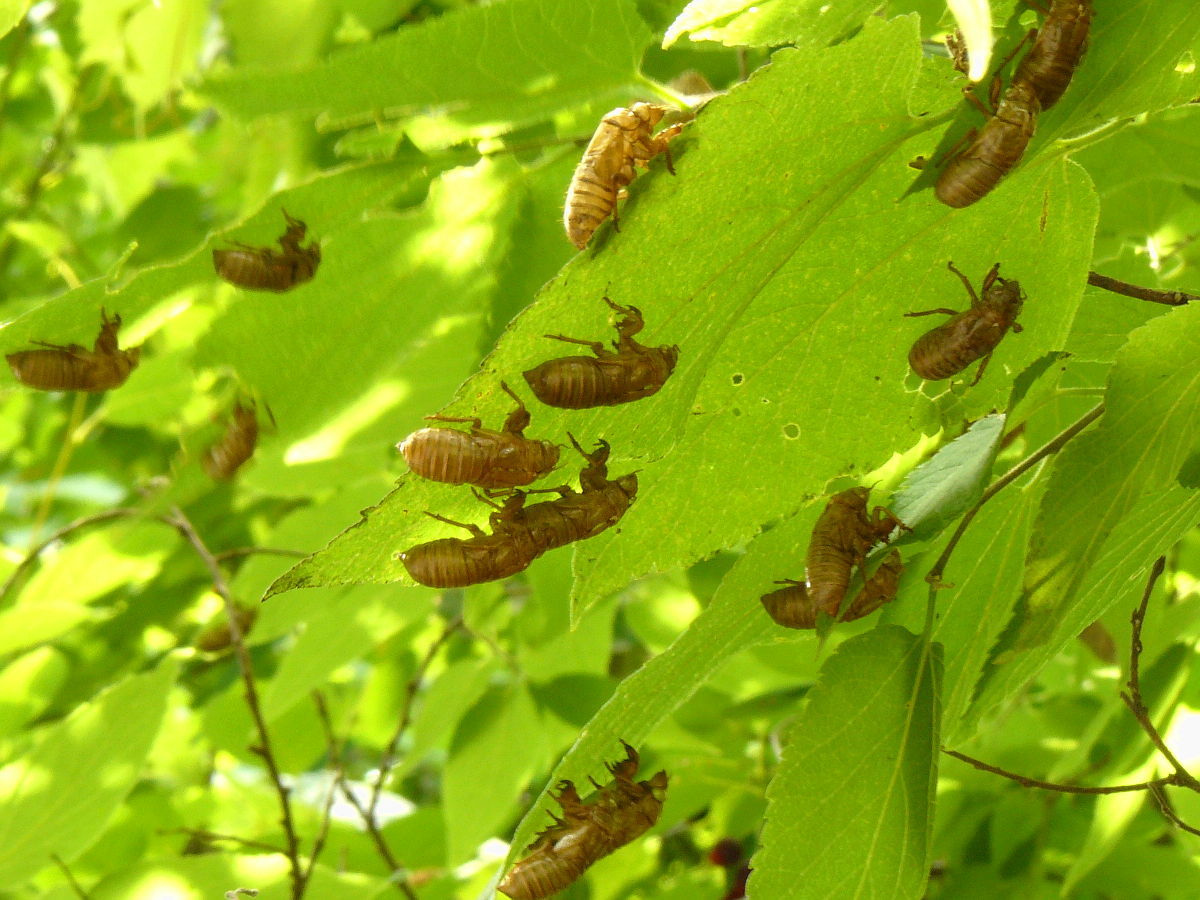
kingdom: Animalia
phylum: Arthropoda
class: Insecta
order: Hemiptera
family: Cicadidae
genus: Magicicada
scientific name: Magicicada cassini
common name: Cassin's 17-year cicada
